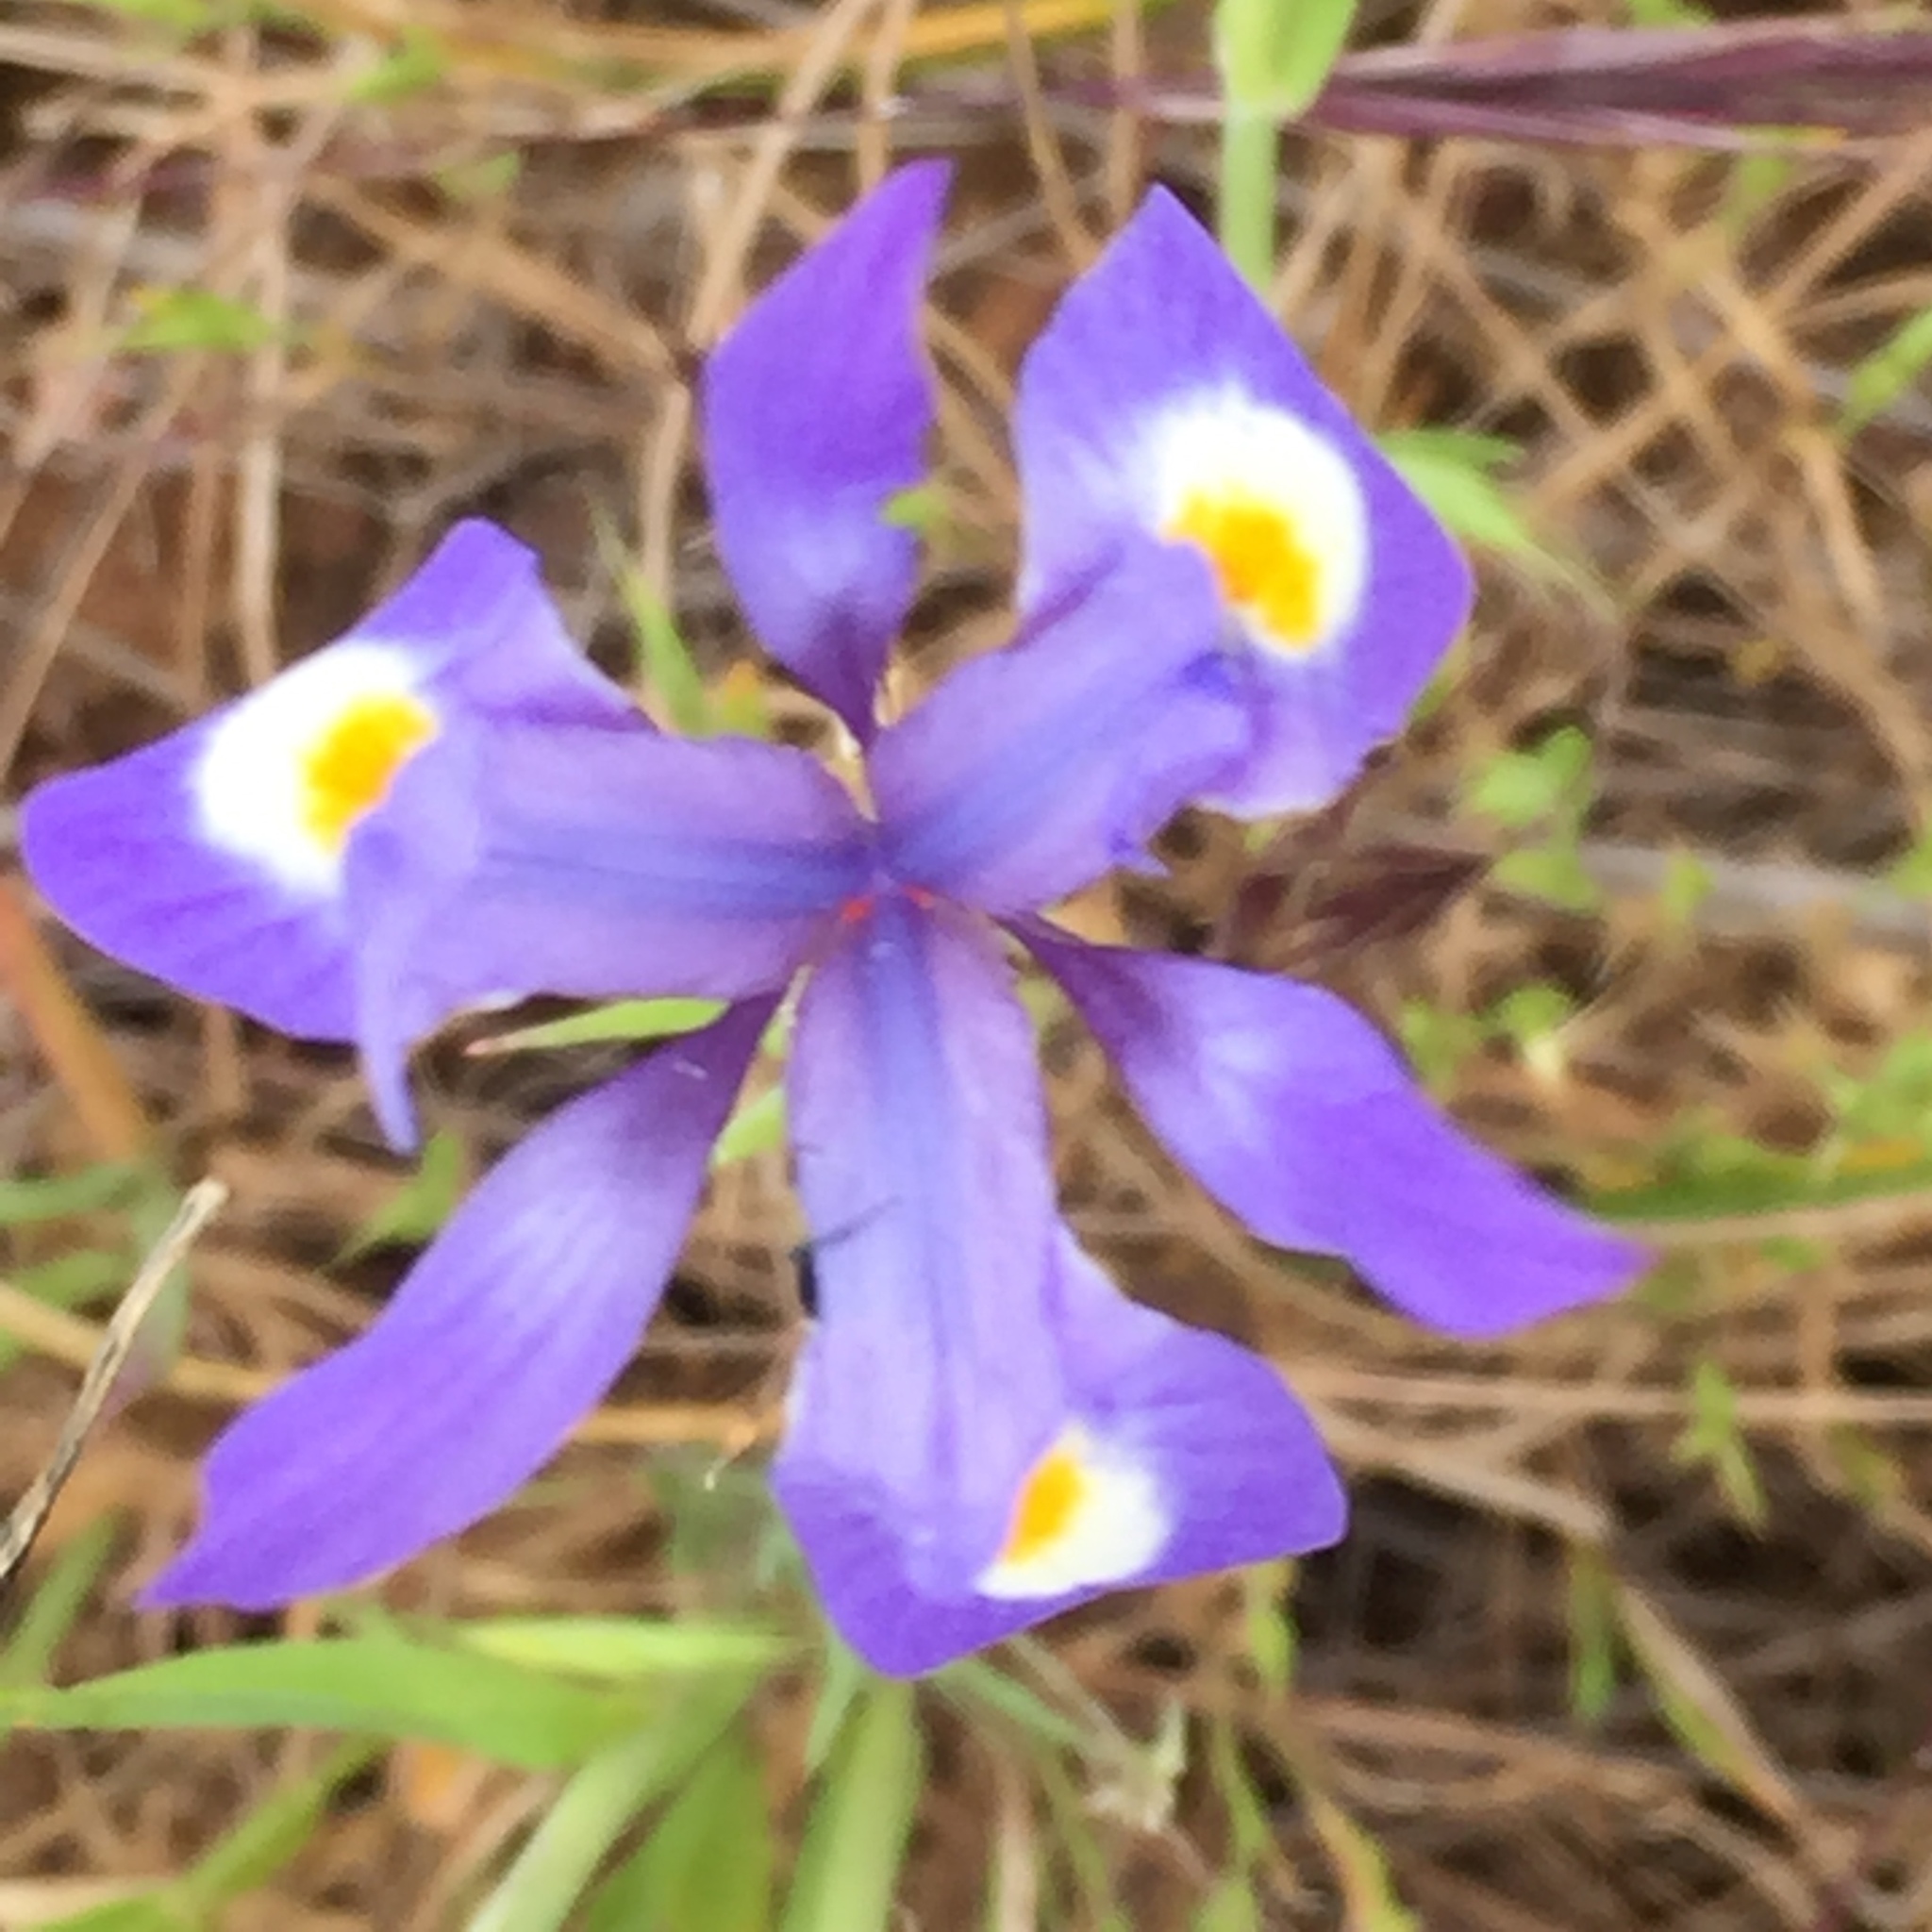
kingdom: Plantae
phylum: Tracheophyta
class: Liliopsida
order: Asparagales
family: Iridaceae
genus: Moraea
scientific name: Moraea sisyrinchium
